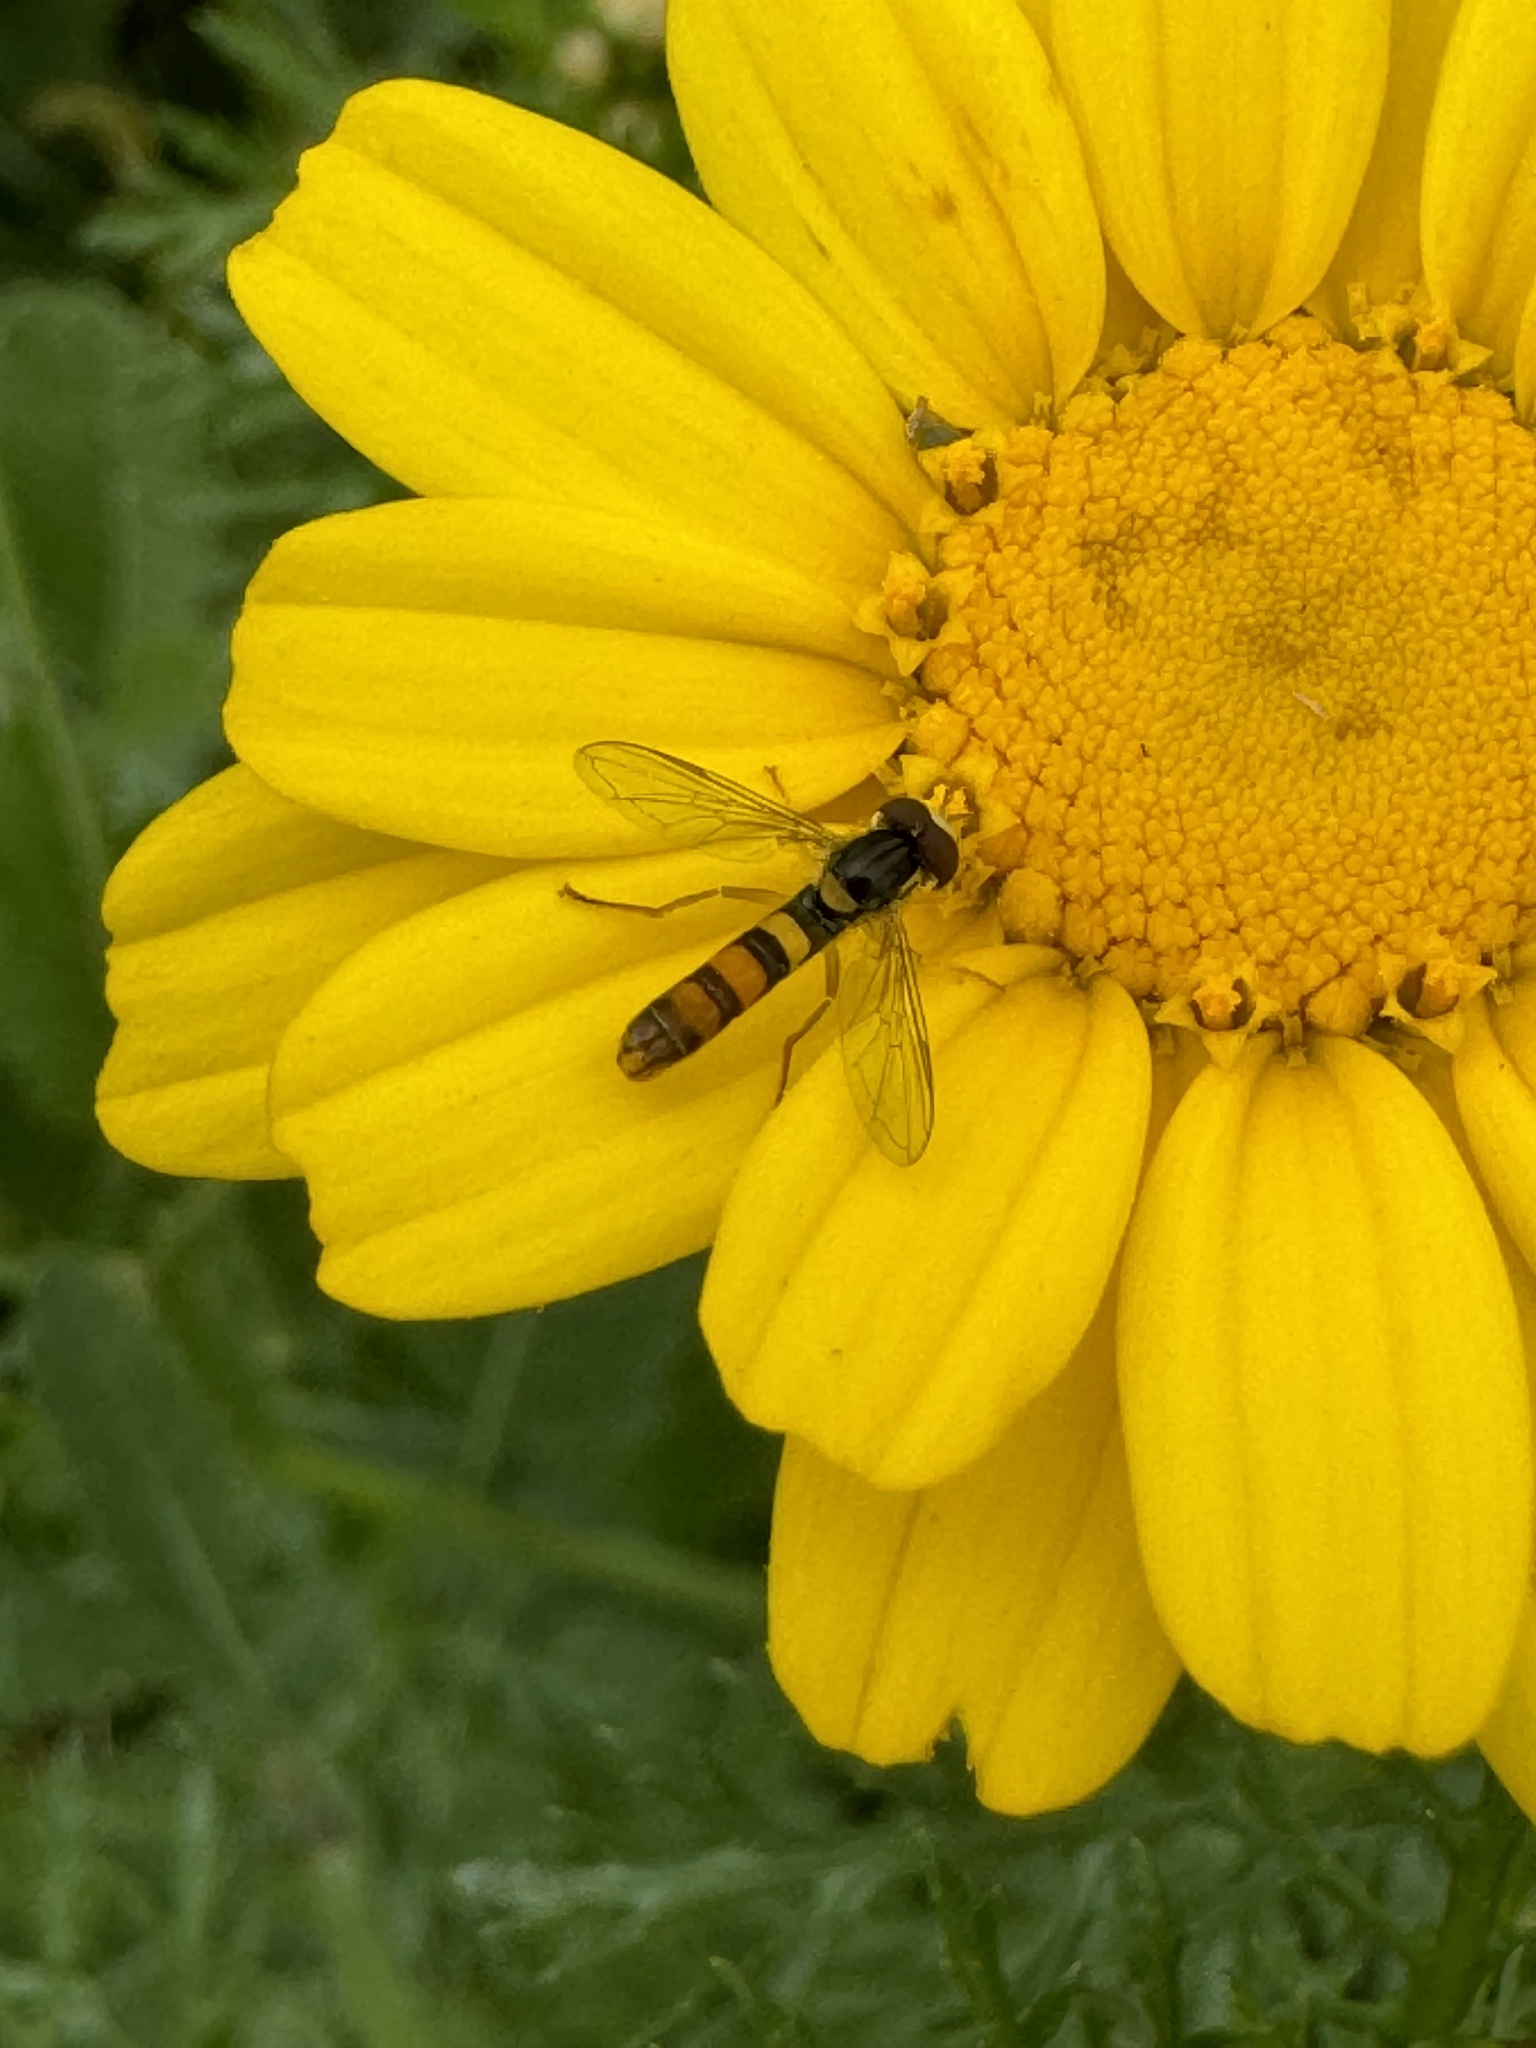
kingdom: Animalia
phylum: Arthropoda
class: Insecta
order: Diptera
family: Syrphidae
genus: Sphaerophoria
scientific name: Sphaerophoria contigua
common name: Tufted globetail
